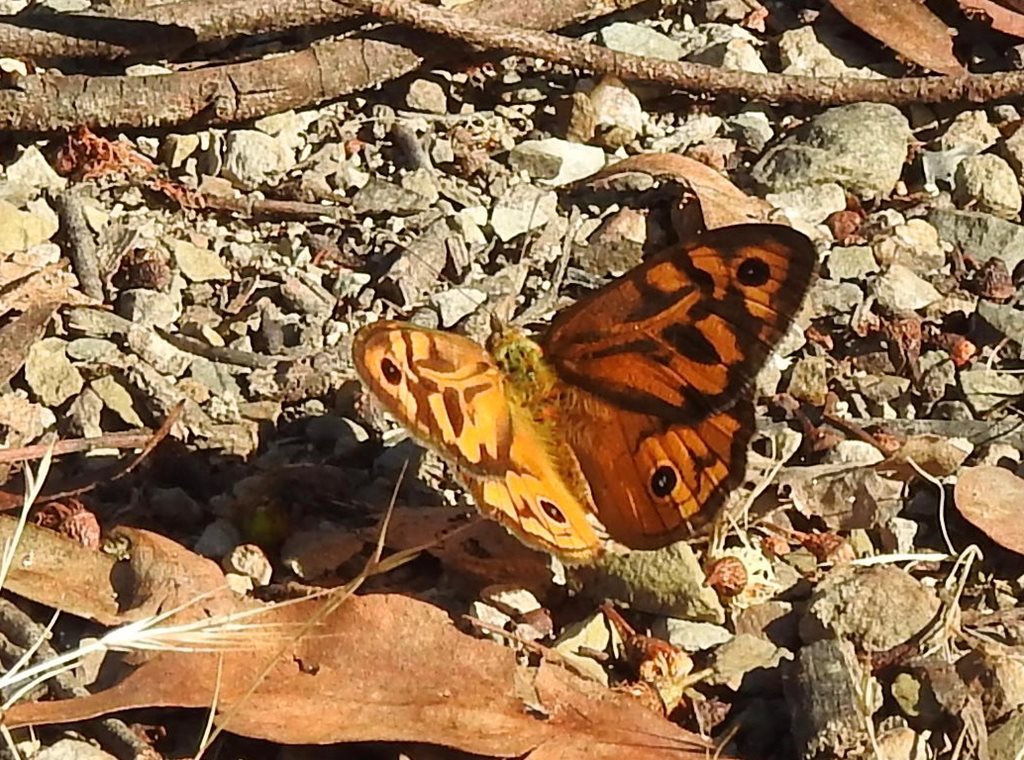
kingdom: Animalia
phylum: Arthropoda
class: Insecta
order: Lepidoptera
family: Nymphalidae
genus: Heteronympha
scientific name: Heteronympha merope
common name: Common brown
